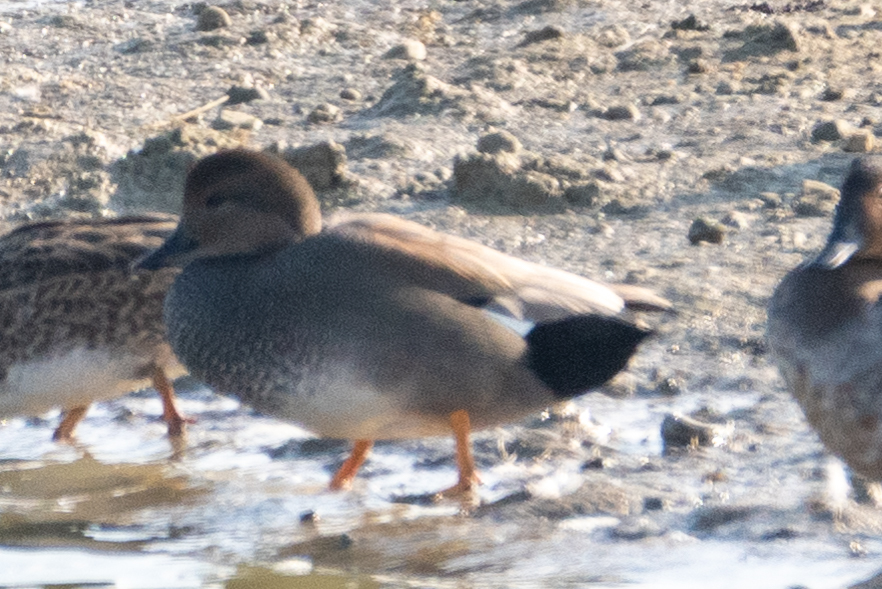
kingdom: Animalia
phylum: Chordata
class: Aves
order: Anseriformes
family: Anatidae
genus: Mareca
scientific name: Mareca strepera
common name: Gadwall
